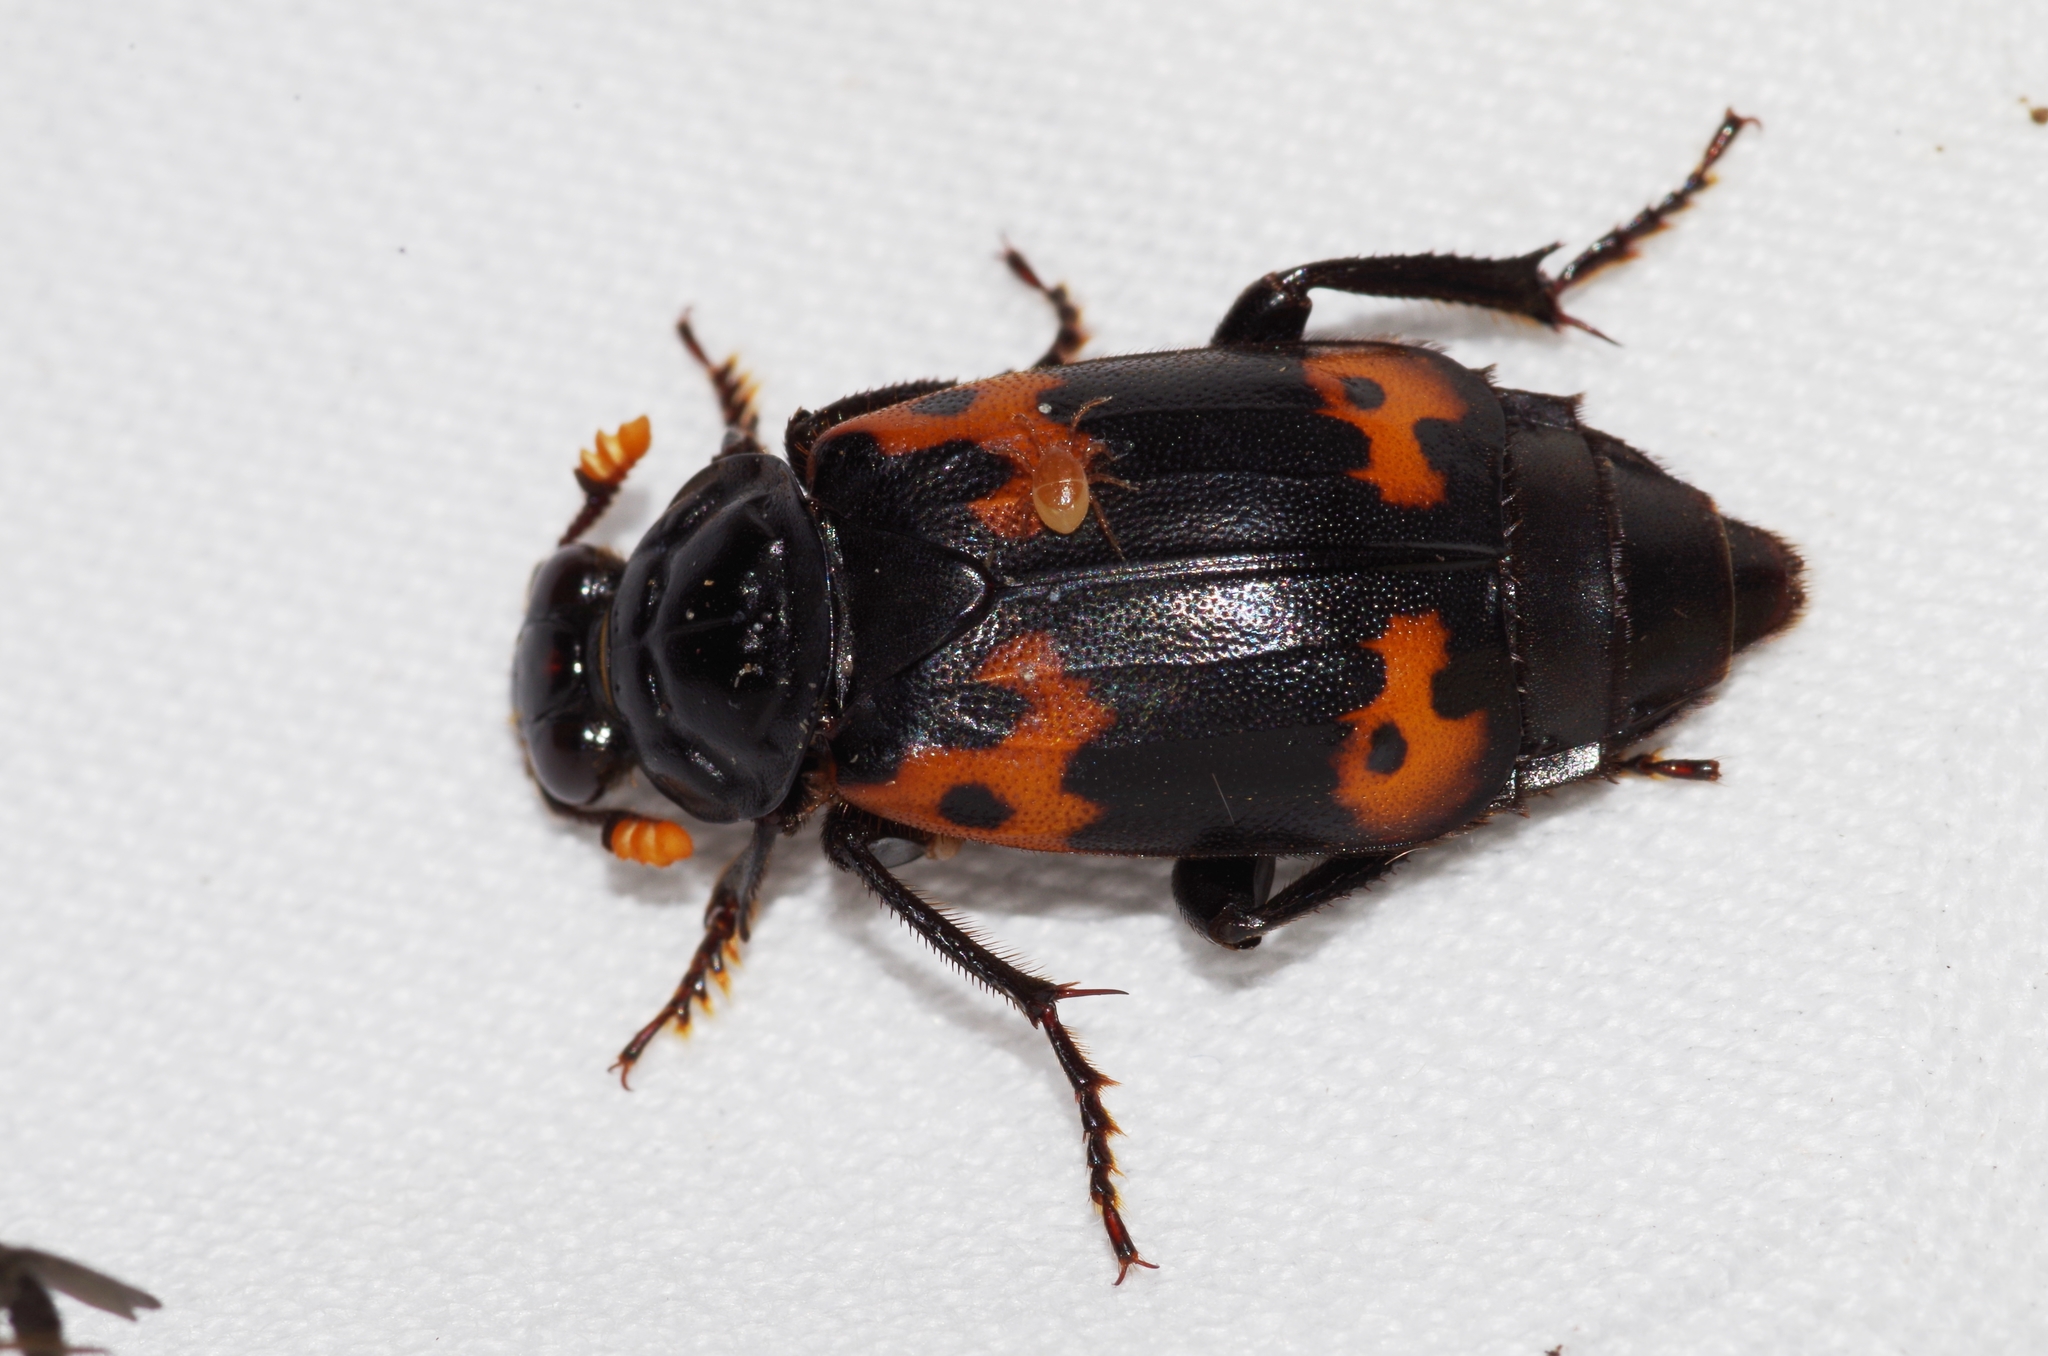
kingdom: Animalia
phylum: Arthropoda
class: Insecta
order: Coleoptera
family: Staphylinidae
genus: Nicrophorus
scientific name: Nicrophorus nepalensis
